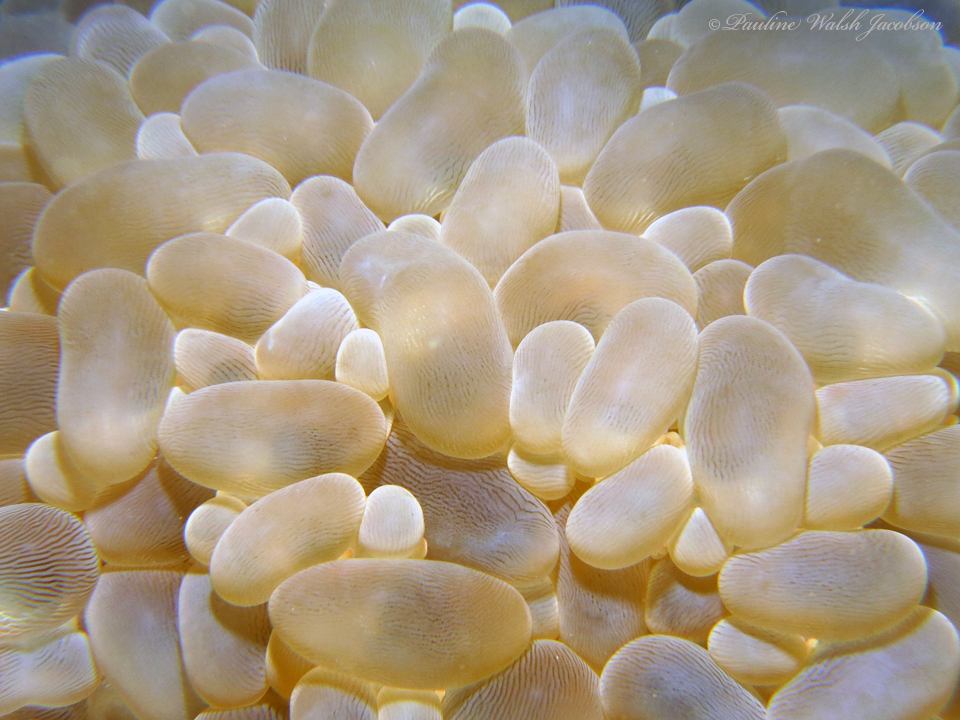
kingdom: Animalia
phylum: Cnidaria
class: Anthozoa
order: Scleractinia
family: Plerogyridae
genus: Plerogyra
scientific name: Plerogyra sinuosa
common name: Bubble coral
